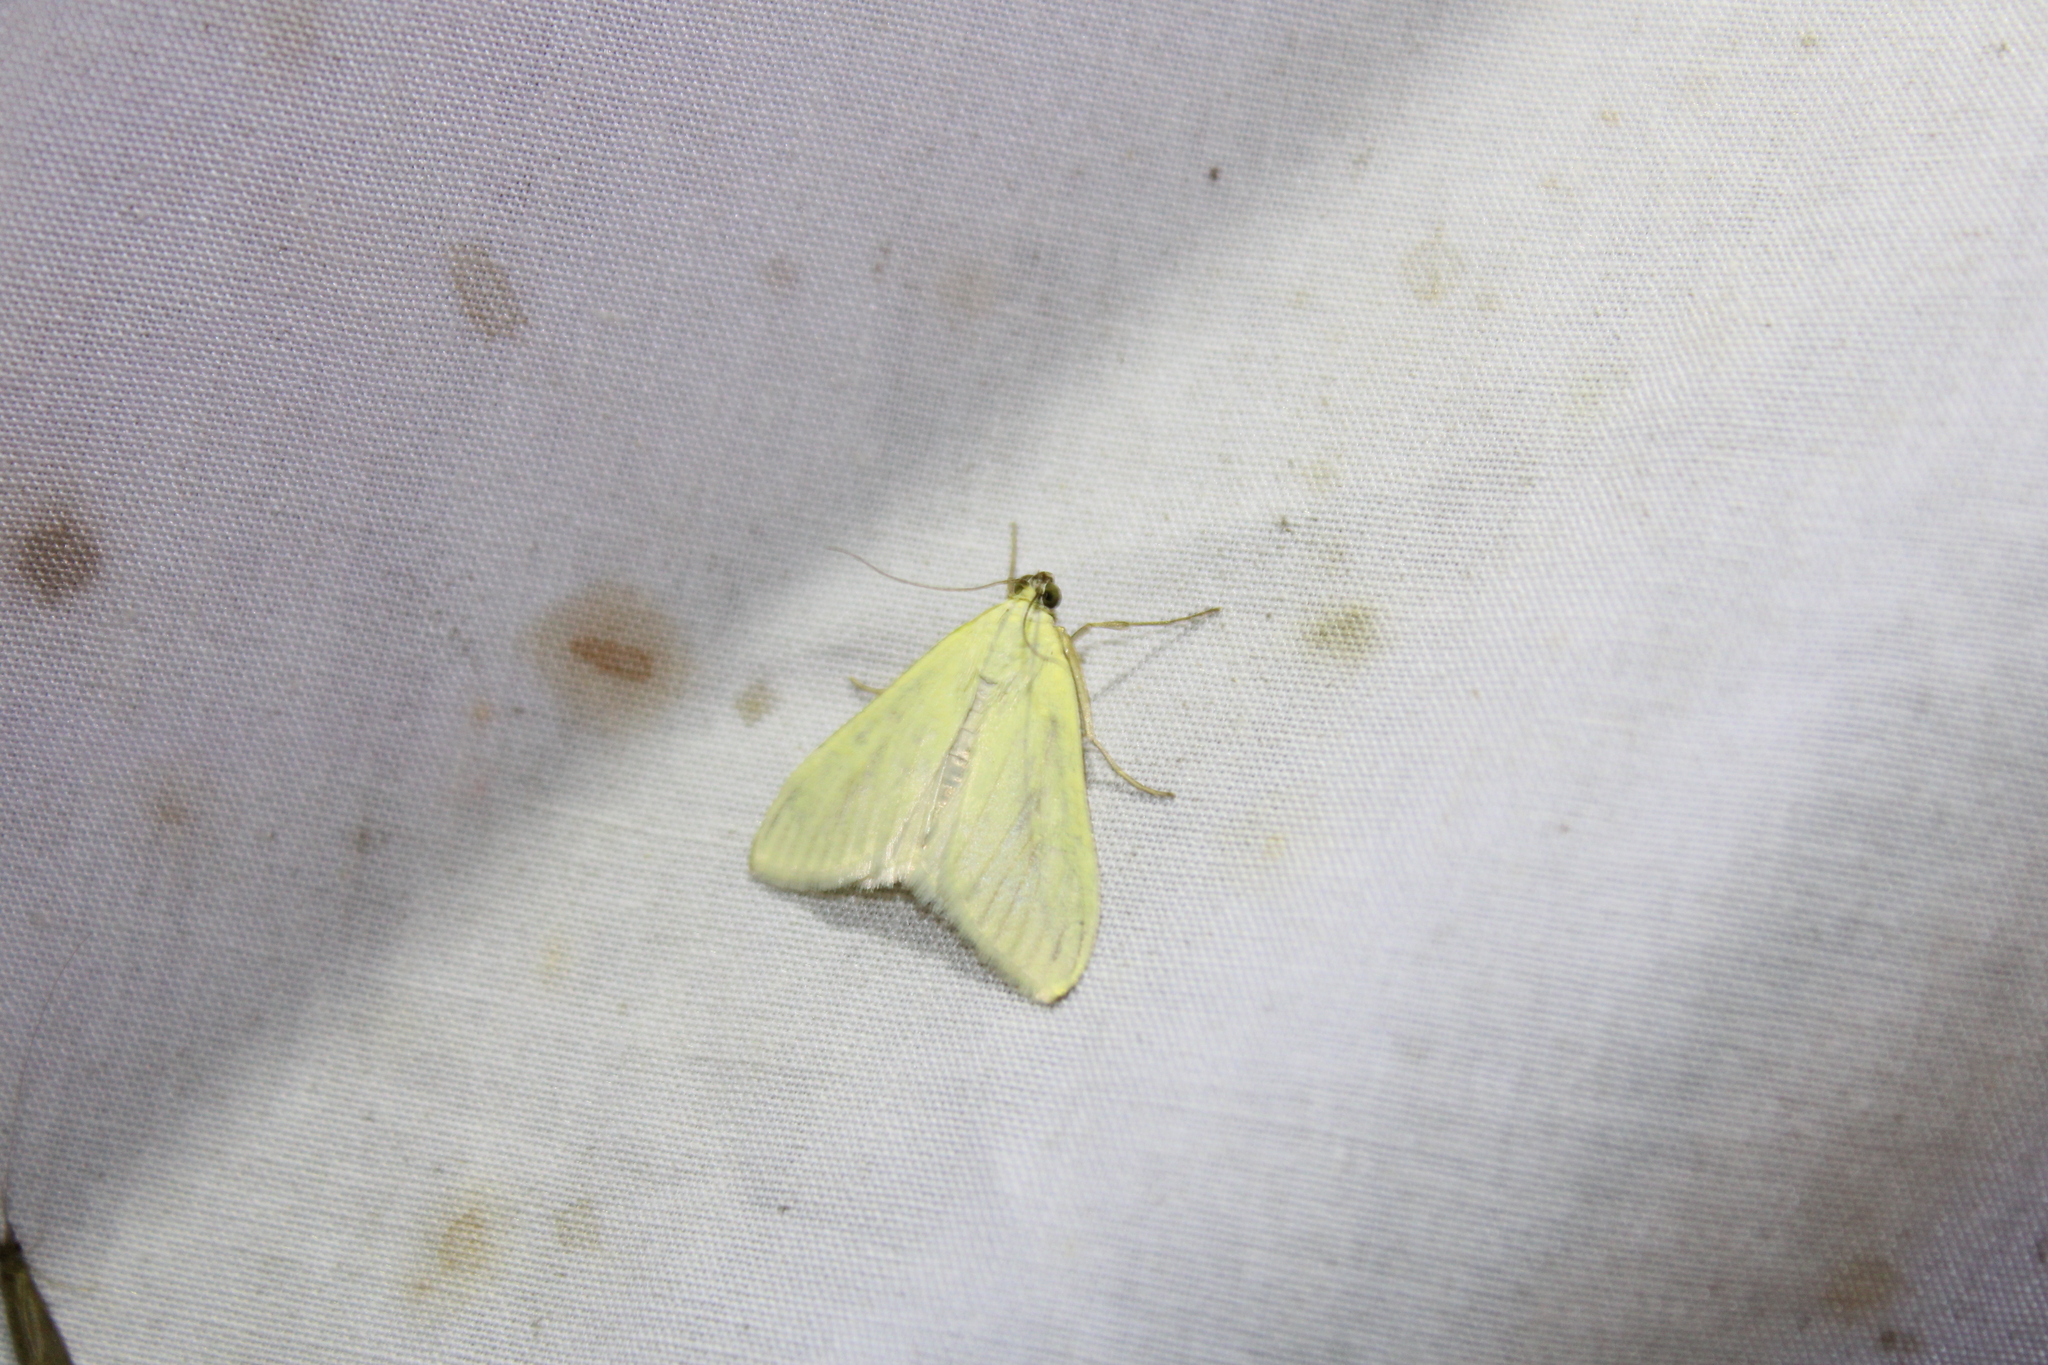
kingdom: Animalia
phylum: Arthropoda
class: Insecta
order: Lepidoptera
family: Crambidae
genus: Sitochroa
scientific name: Sitochroa palealis
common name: Greenish-yellow sitochroa moth
